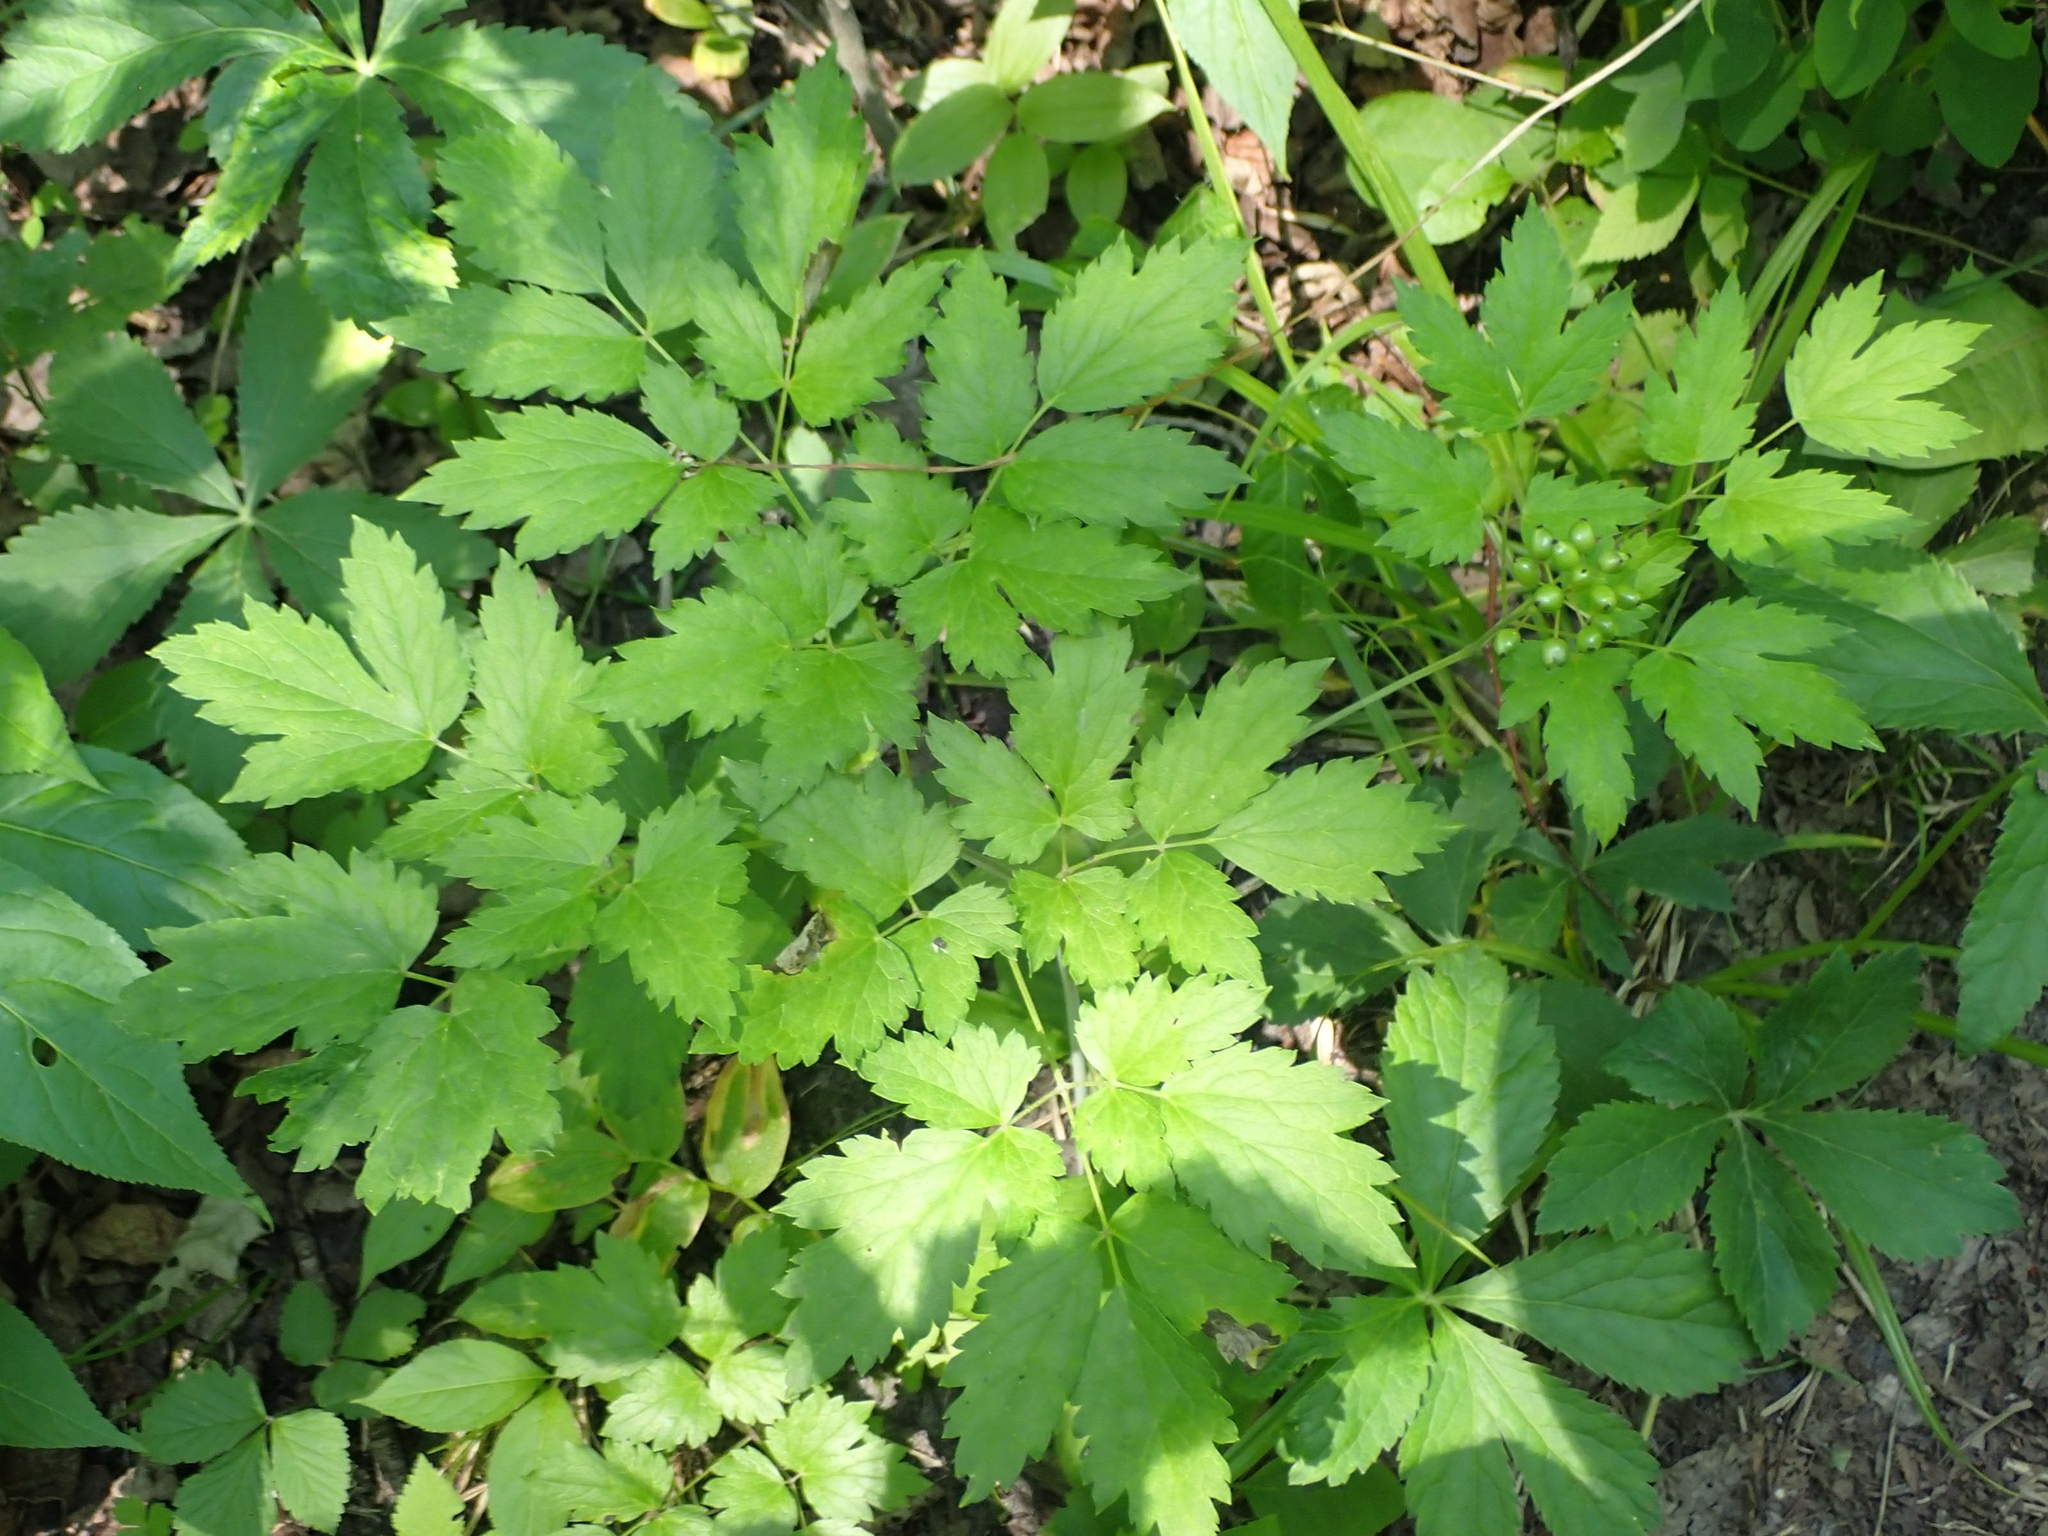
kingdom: Plantae
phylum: Tracheophyta
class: Magnoliopsida
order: Ranunculales
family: Ranunculaceae
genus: Actaea
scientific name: Actaea rubra
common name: Red baneberry
